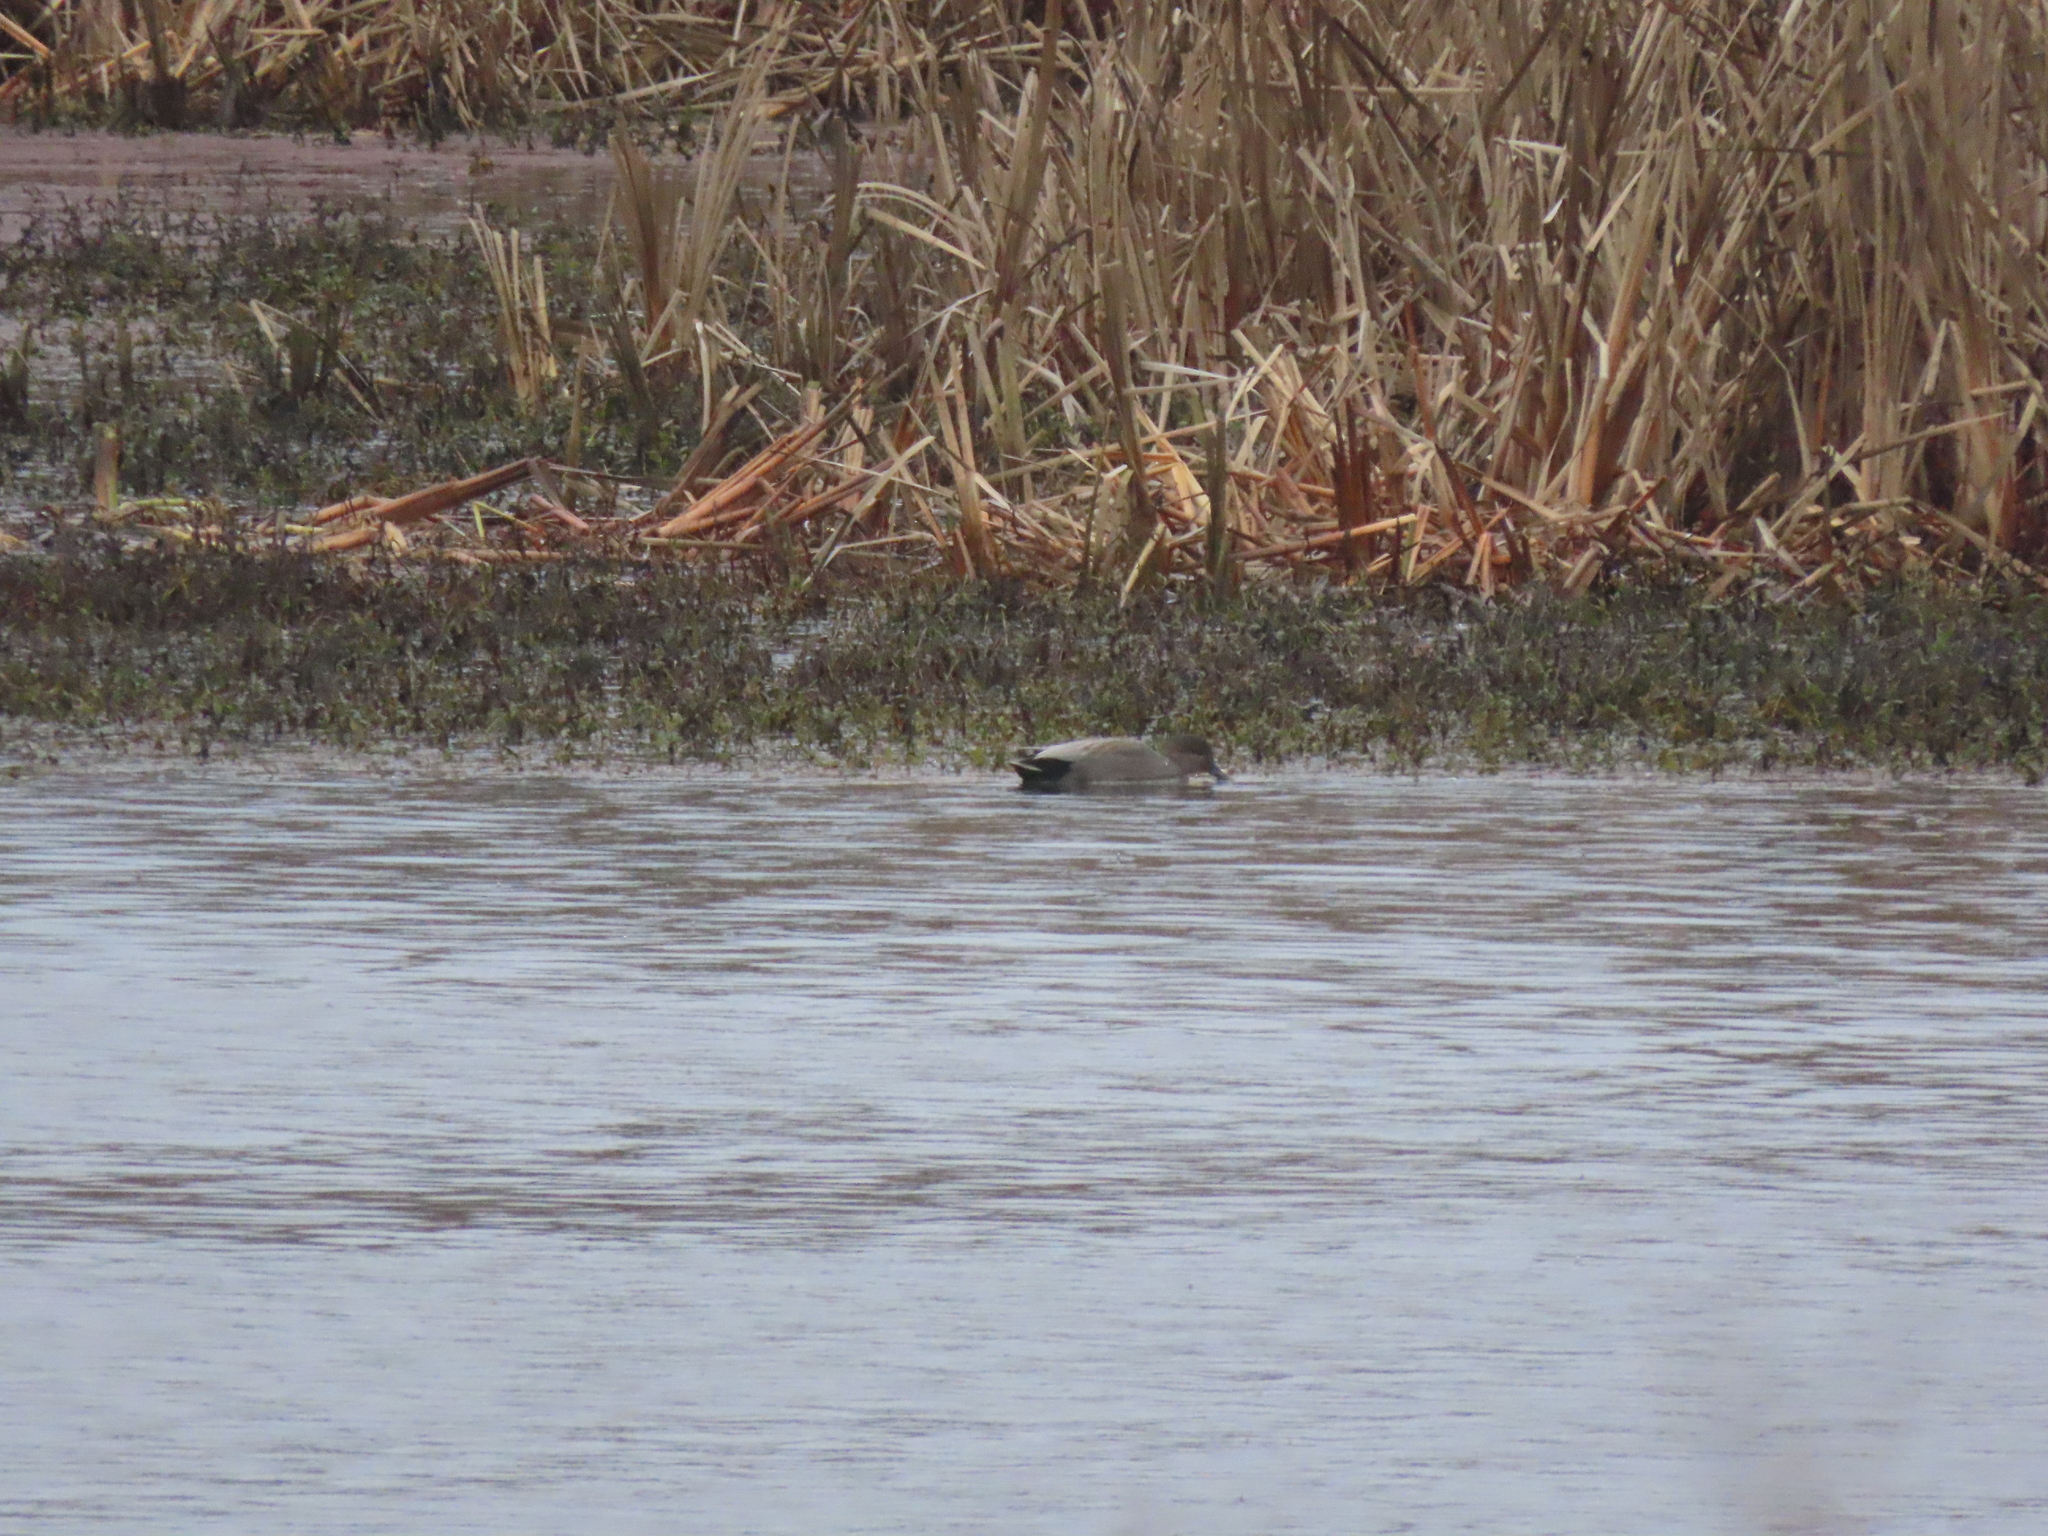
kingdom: Animalia
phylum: Chordata
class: Aves
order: Anseriformes
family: Anatidae
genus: Mareca
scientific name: Mareca strepera
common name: Gadwall
